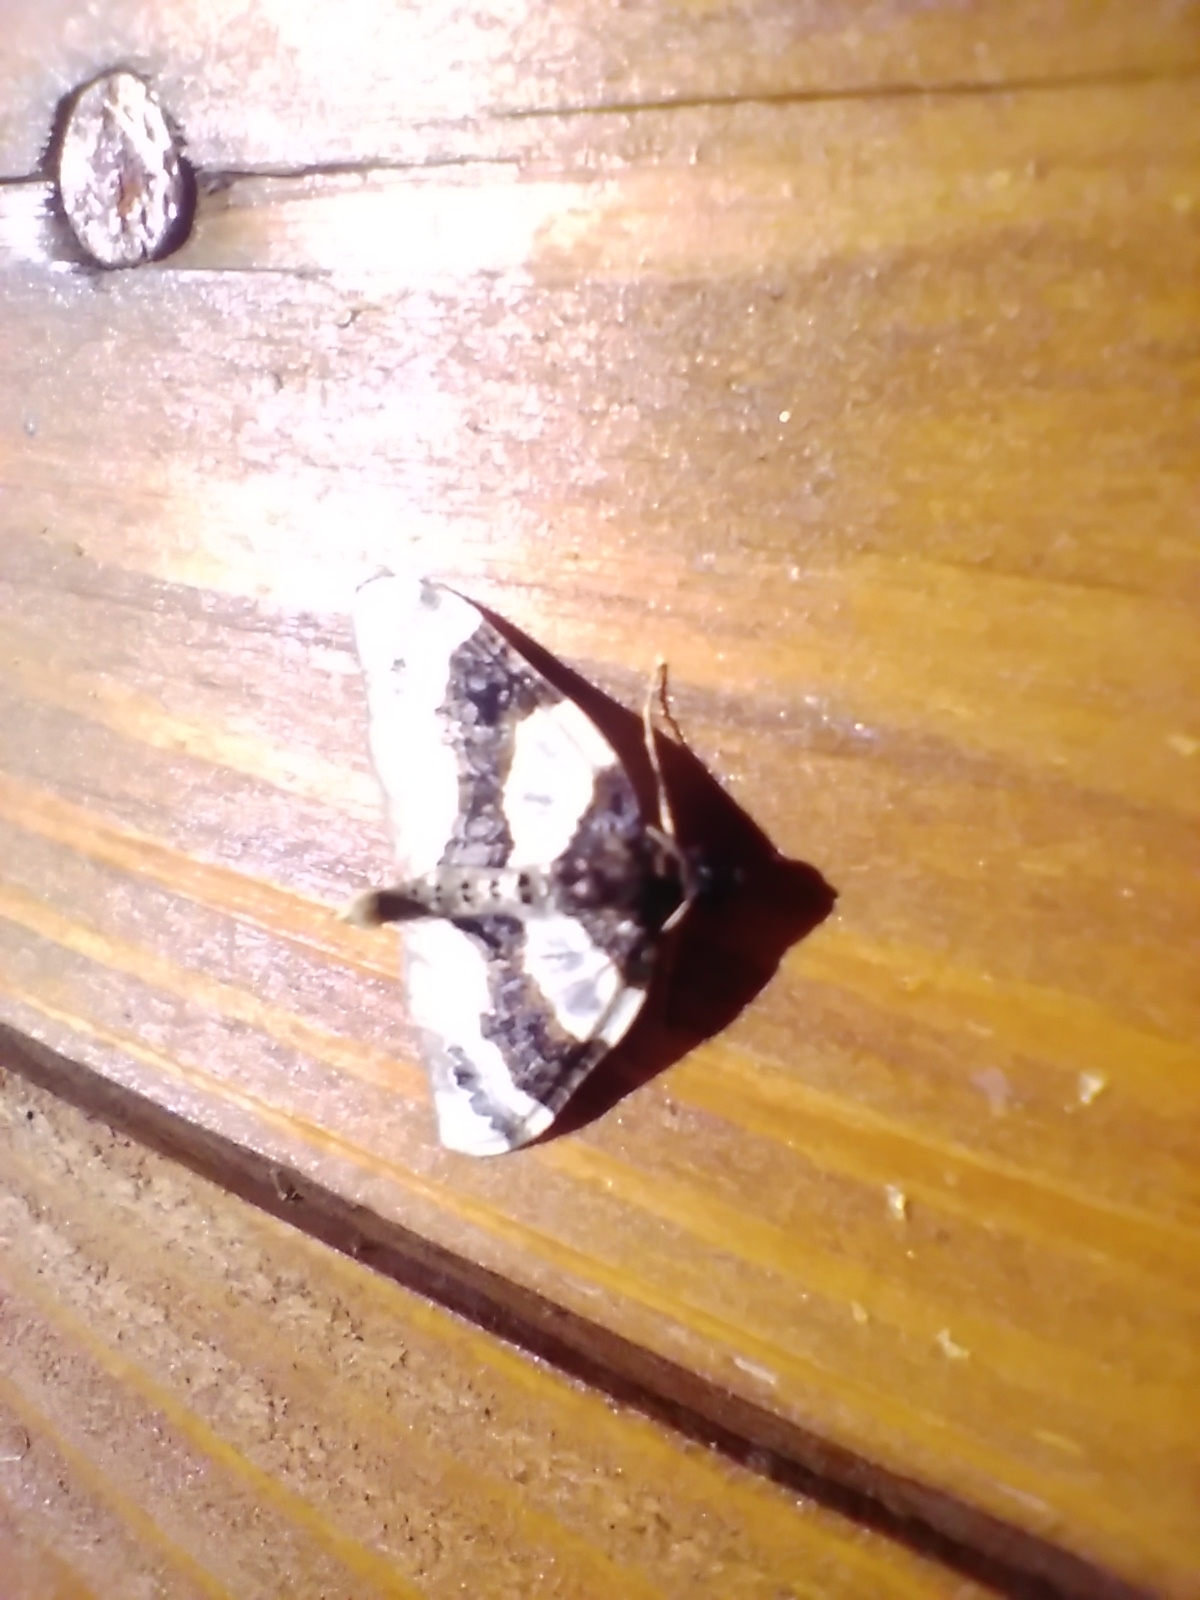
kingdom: Animalia
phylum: Arthropoda
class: Insecta
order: Lepidoptera
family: Geometridae
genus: Cosmorhoe
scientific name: Cosmorhoe ocellata
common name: Purple bar
